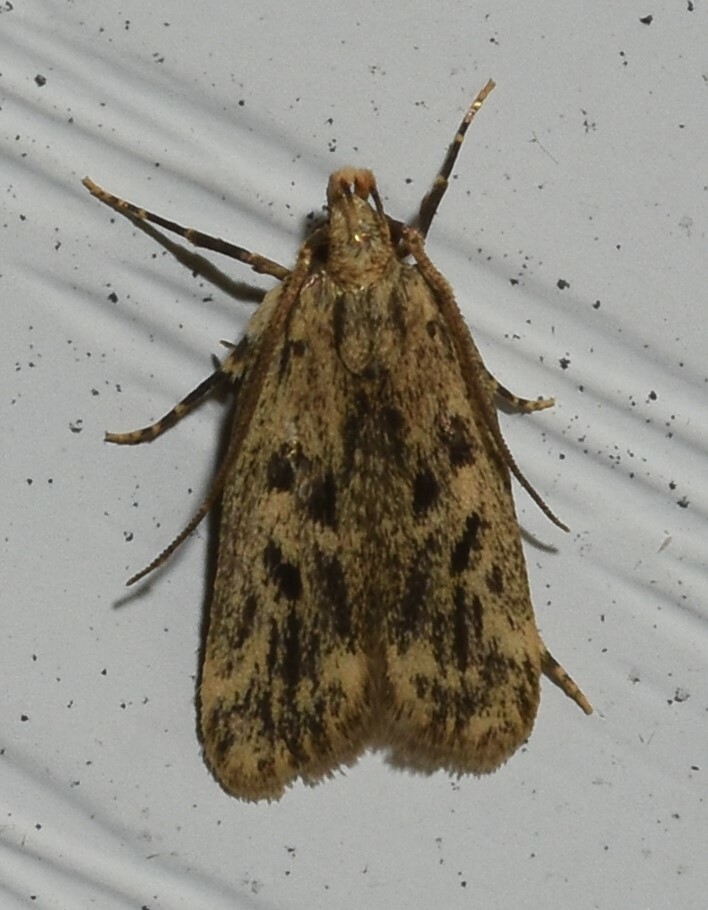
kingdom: Animalia
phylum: Arthropoda
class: Insecta
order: Lepidoptera
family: Lecithoceridae
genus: Martyringa
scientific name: Martyringa latipennis
